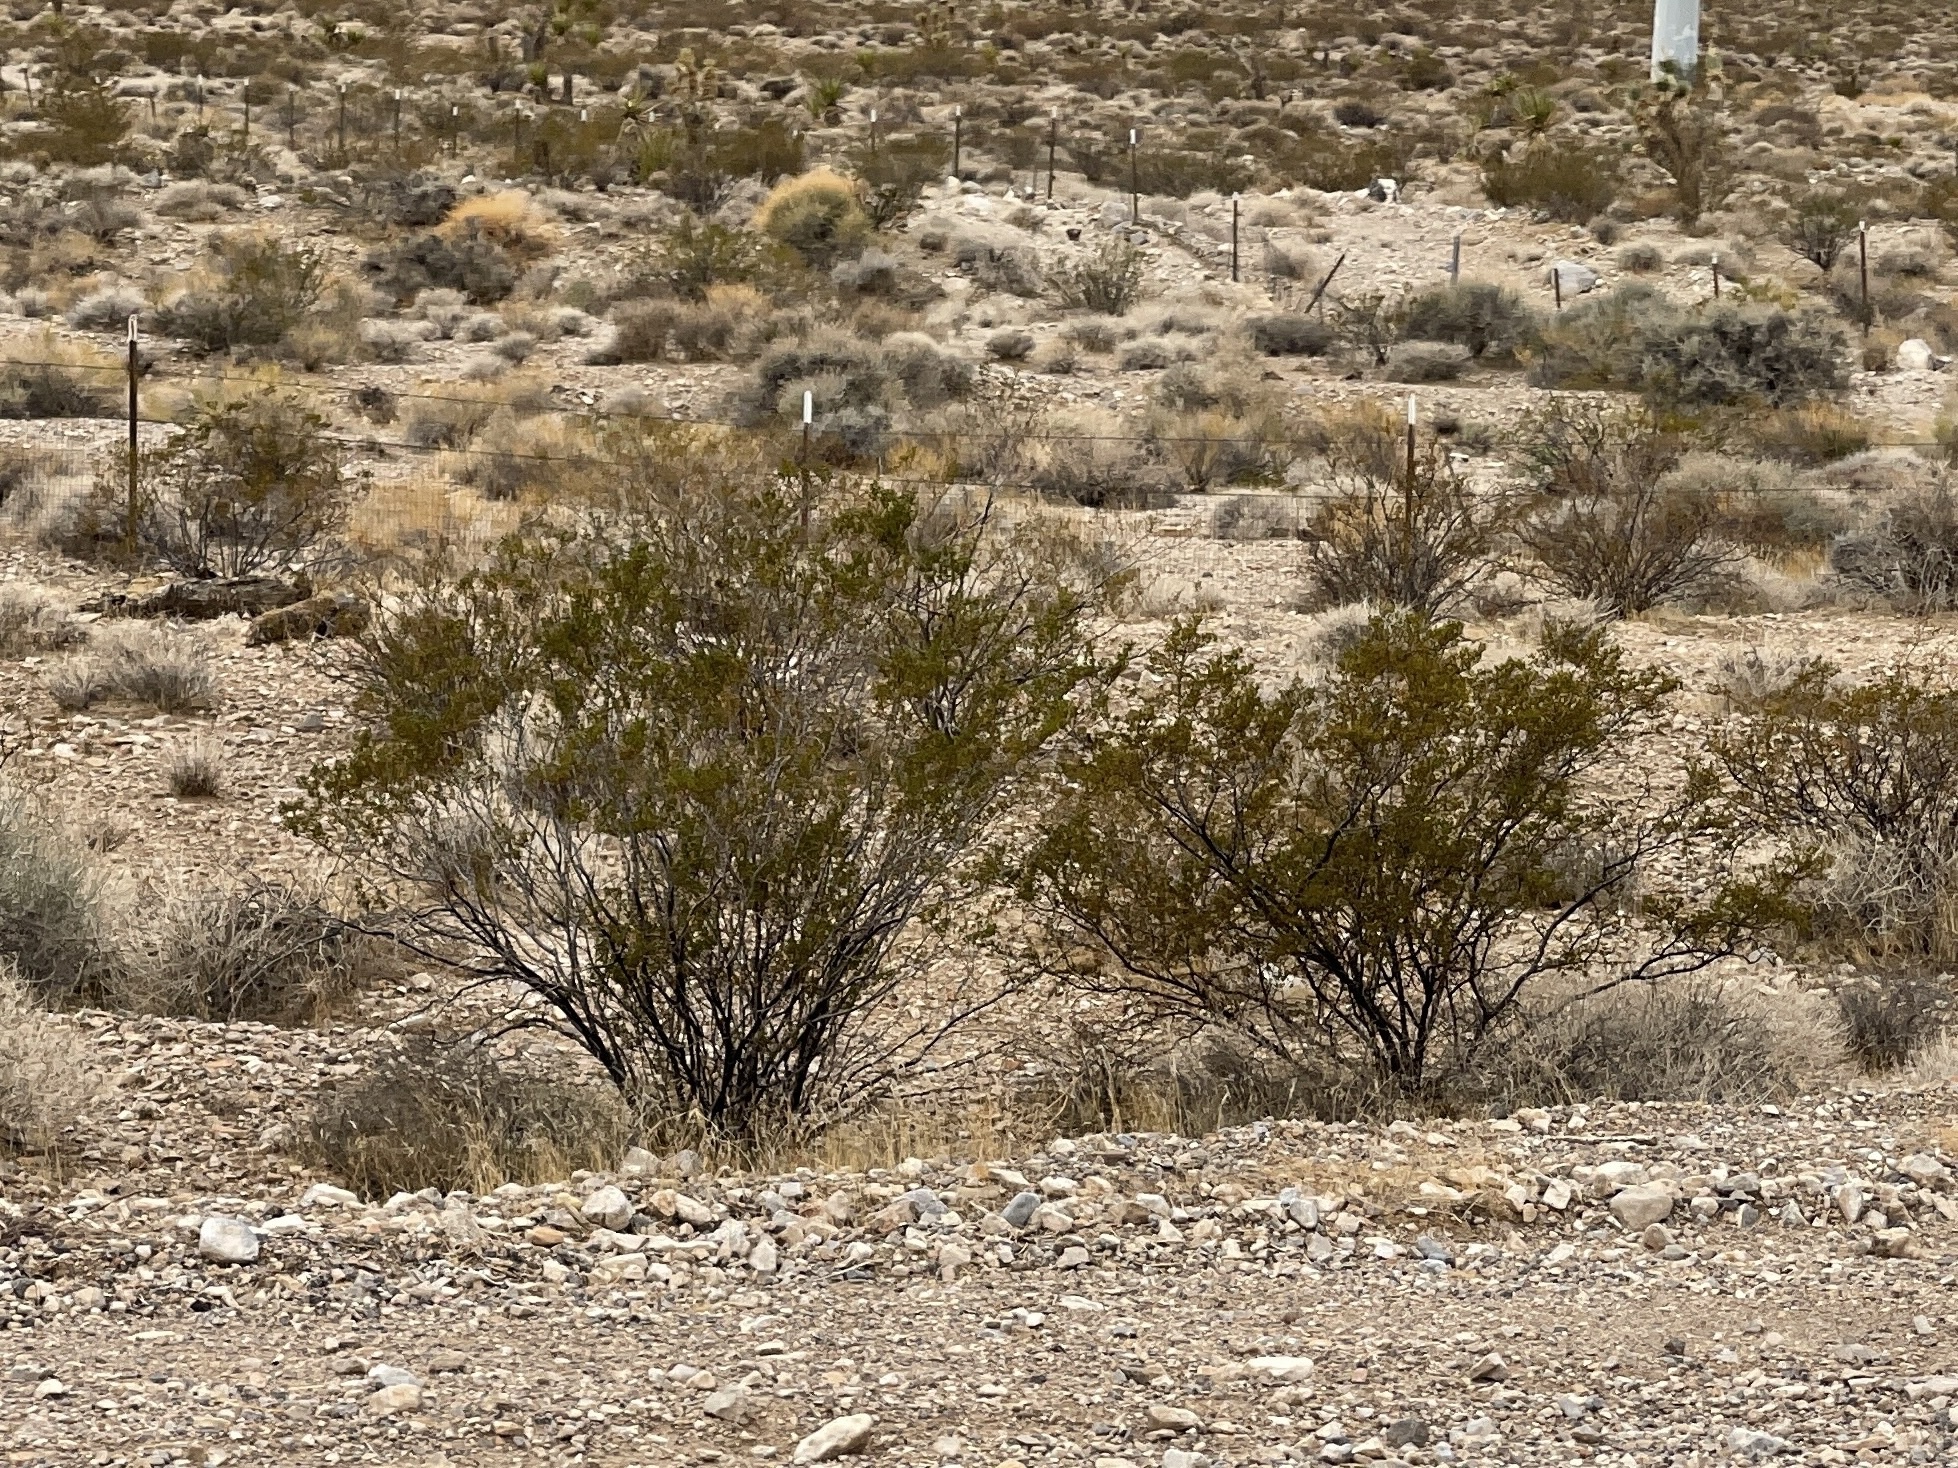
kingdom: Plantae
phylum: Tracheophyta
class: Magnoliopsida
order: Zygophyllales
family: Zygophyllaceae
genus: Larrea
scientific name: Larrea tridentata
